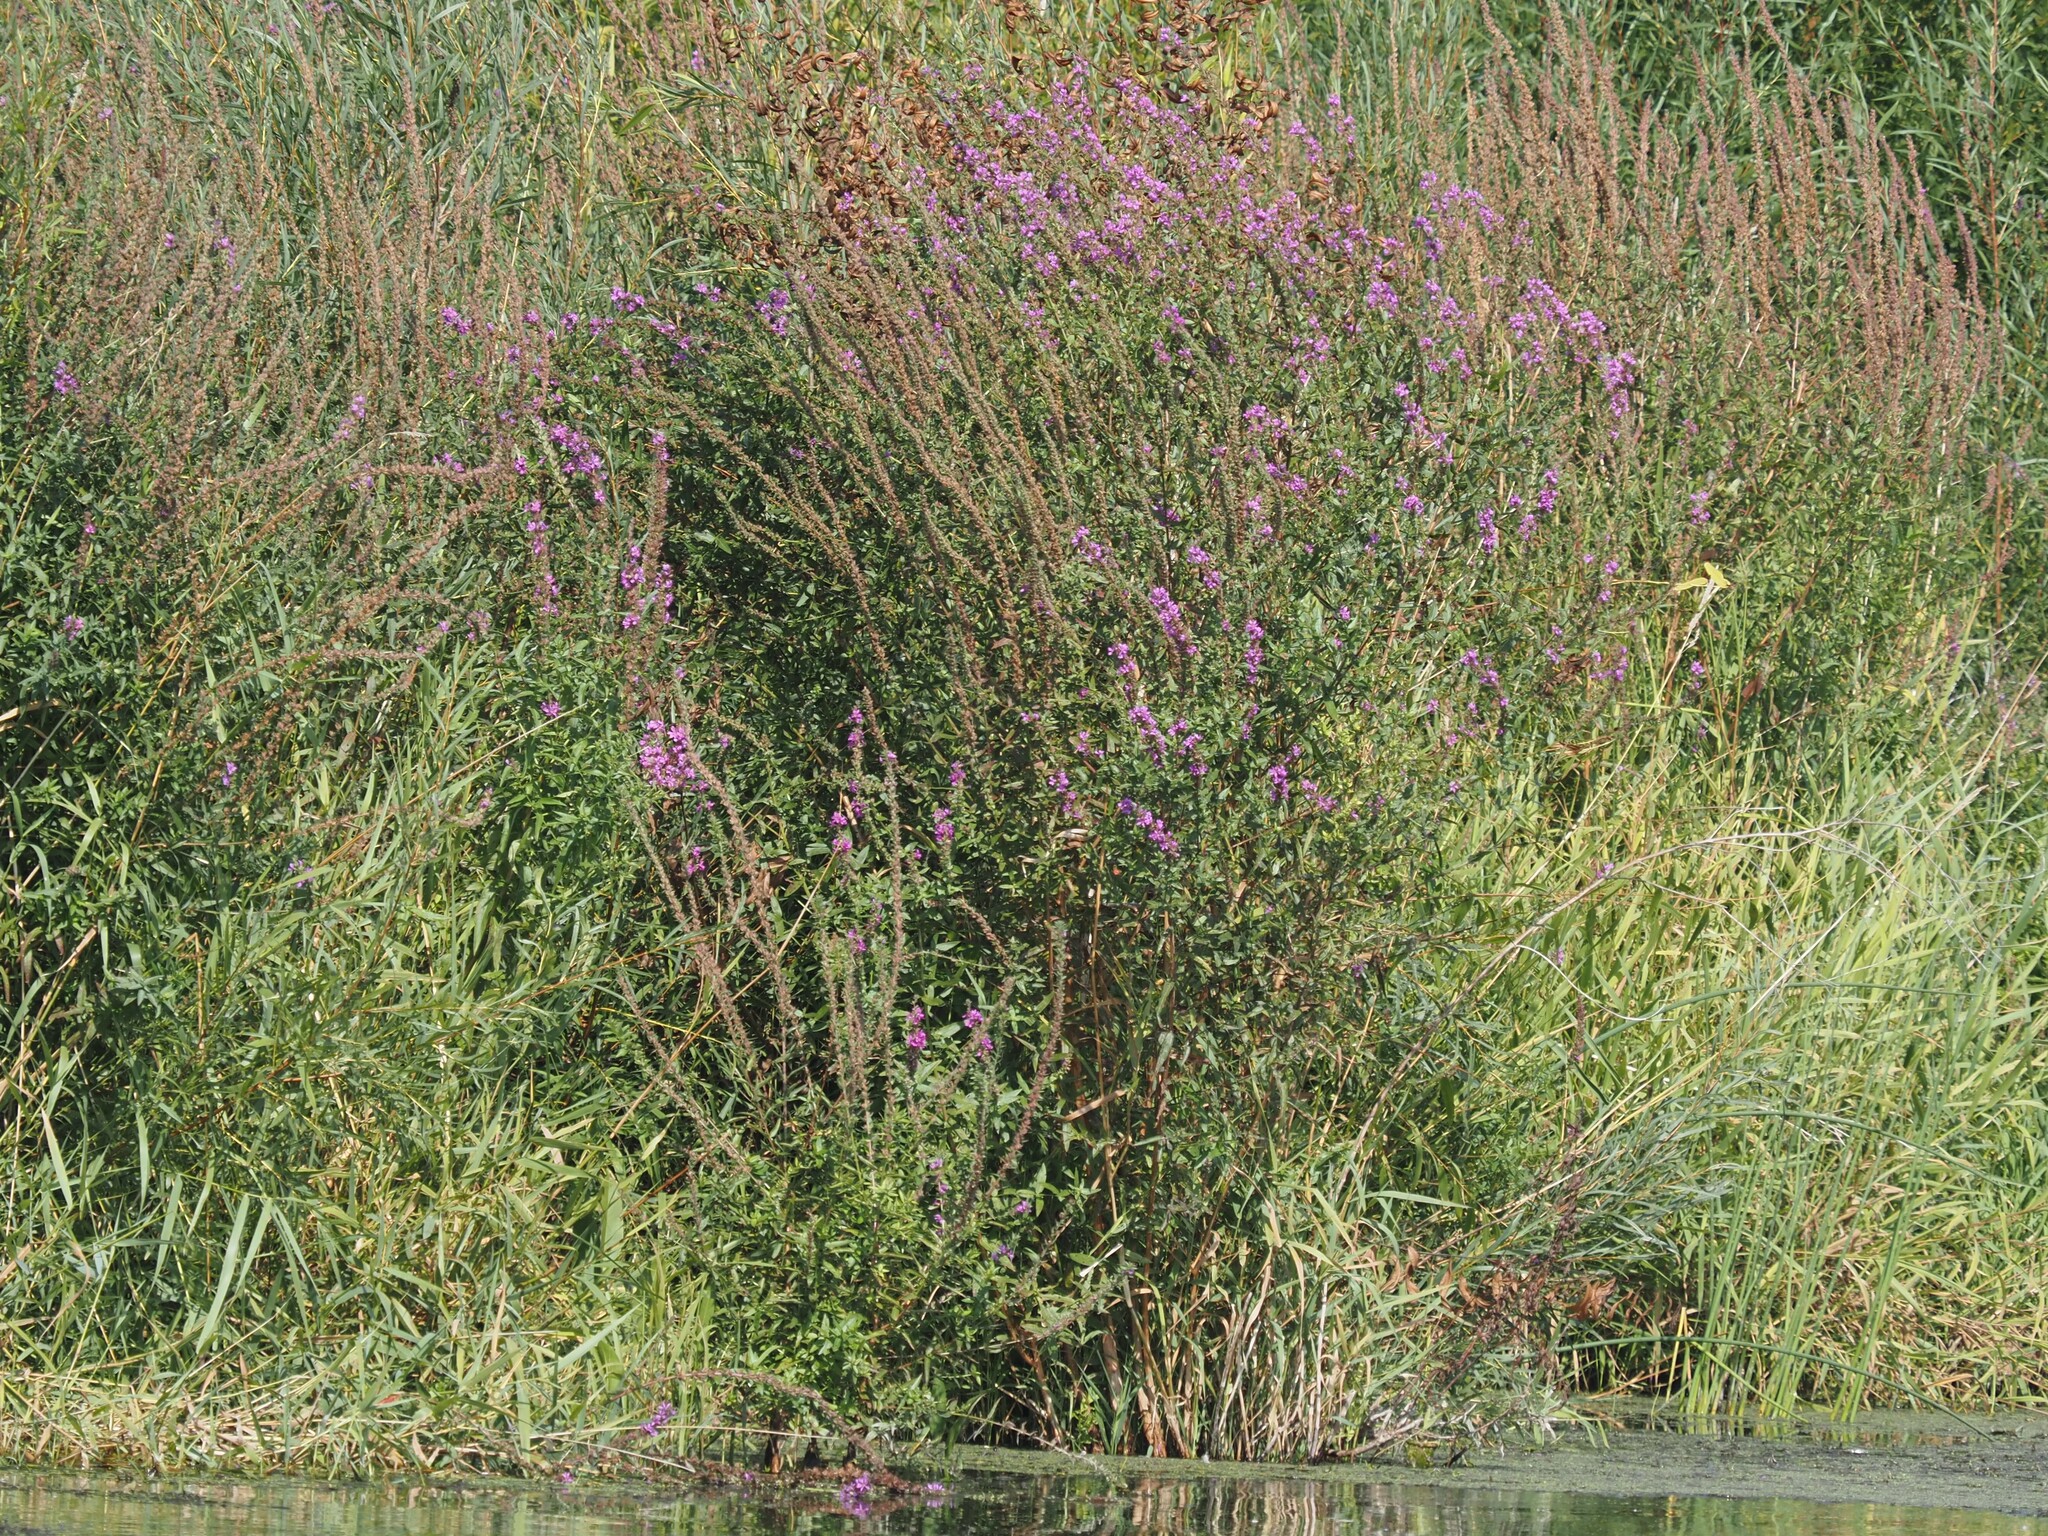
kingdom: Plantae
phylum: Tracheophyta
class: Magnoliopsida
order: Myrtales
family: Lythraceae
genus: Lythrum
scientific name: Lythrum salicaria
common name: Purple loosestrife
